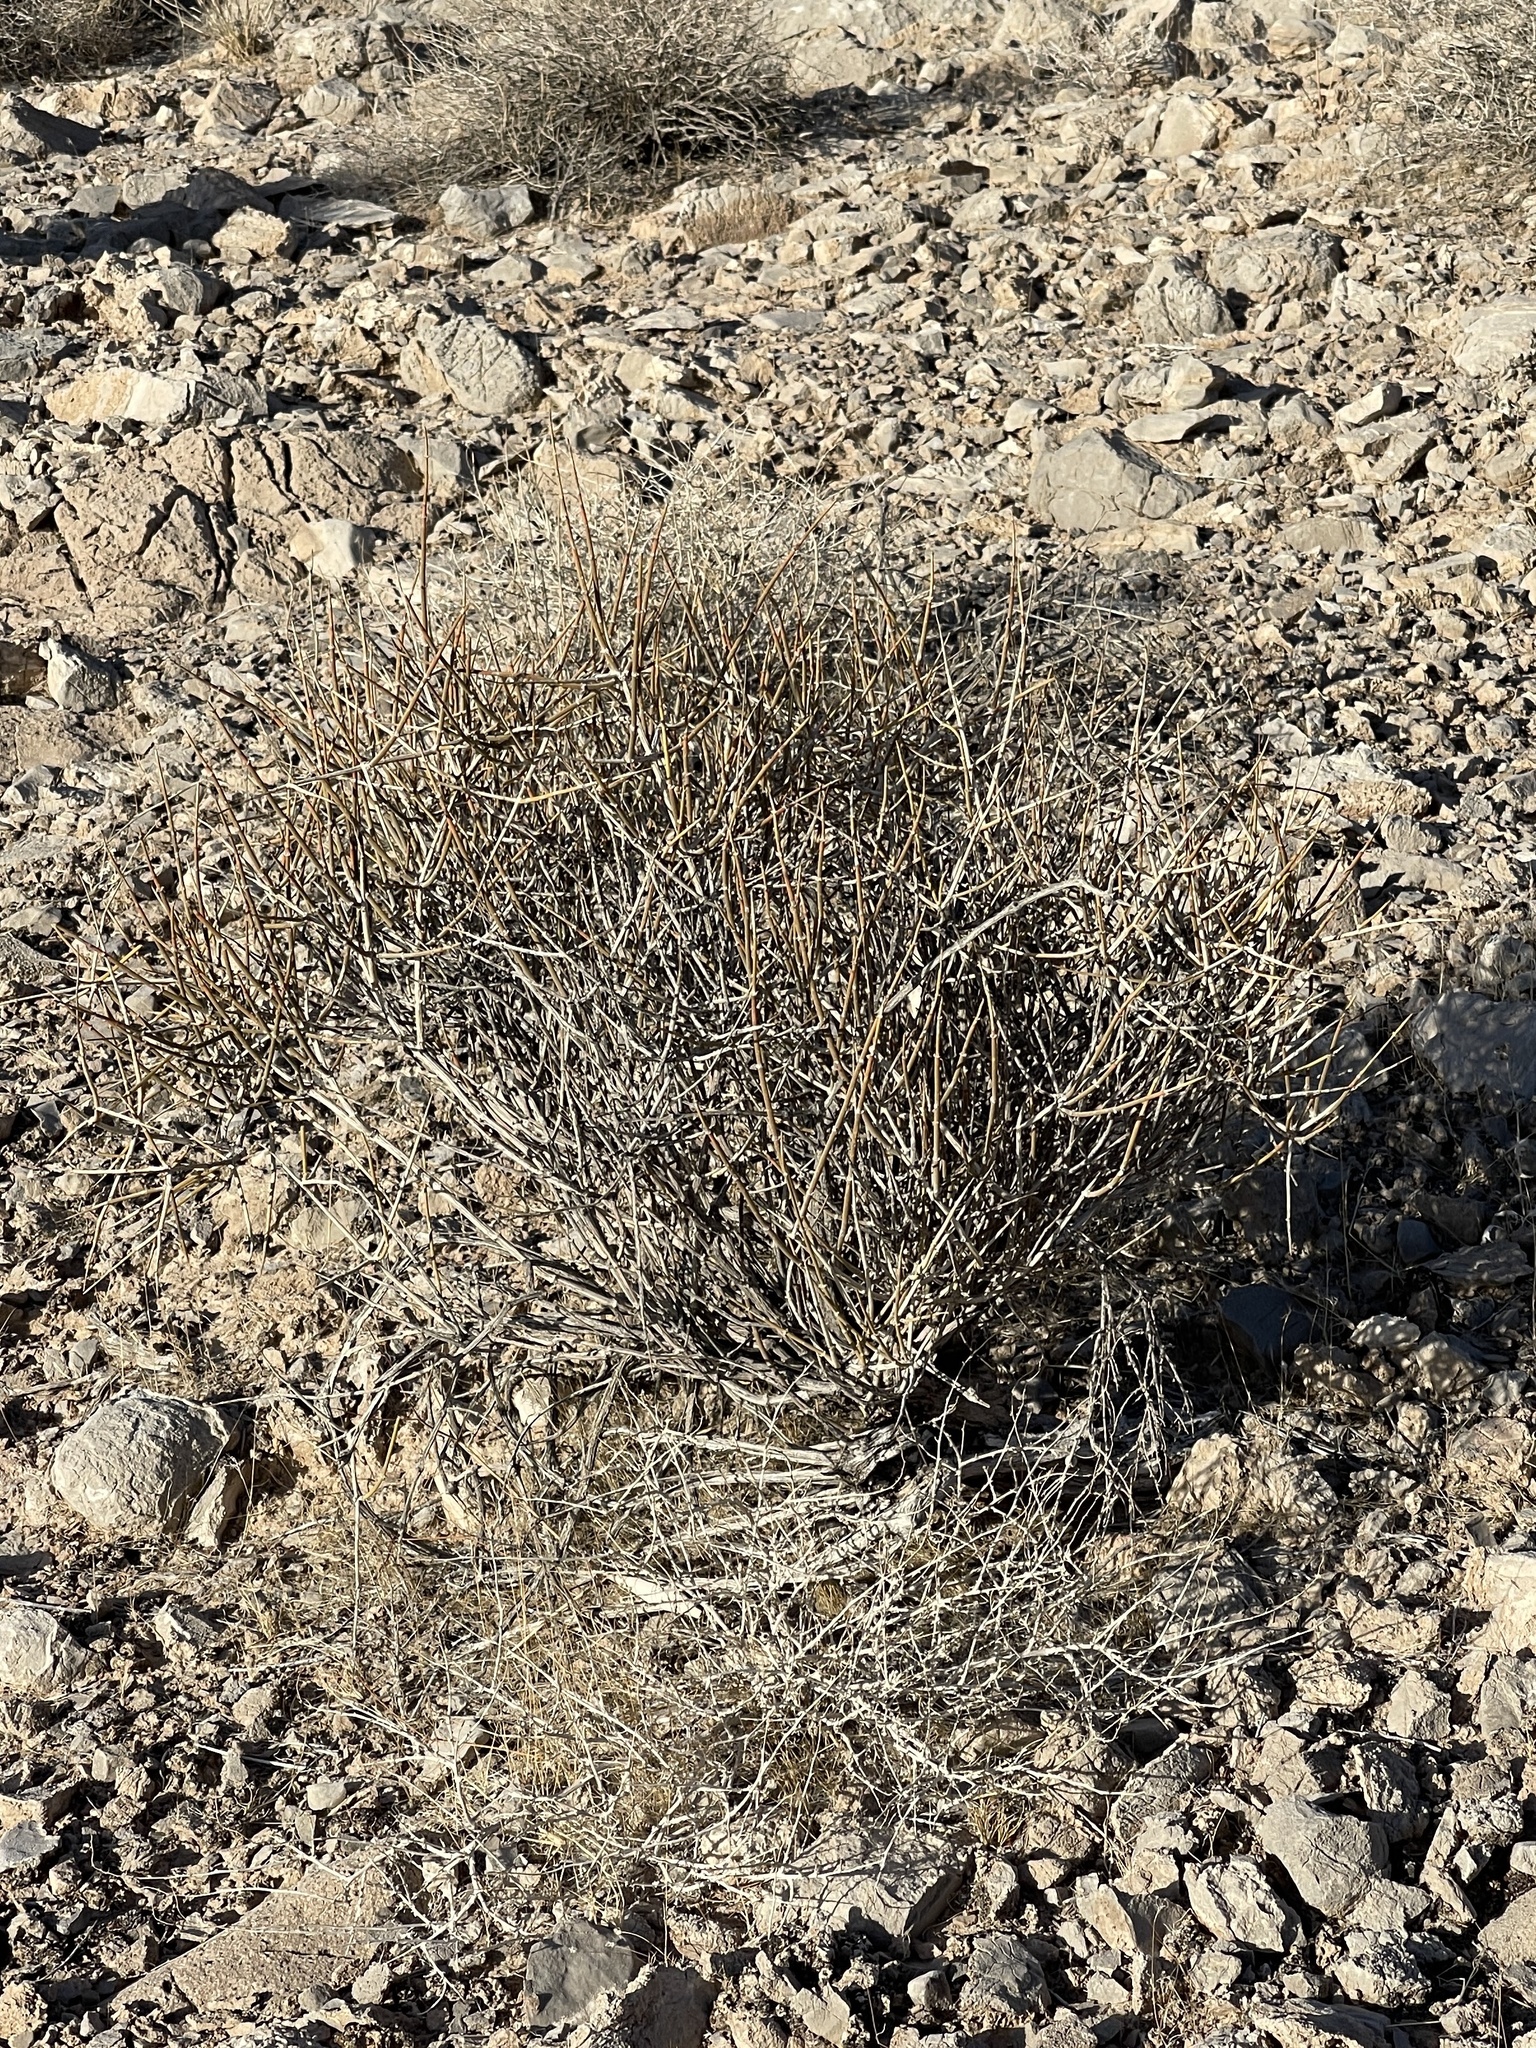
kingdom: Plantae
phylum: Tracheophyta
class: Gnetopsida
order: Ephedrales
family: Ephedraceae
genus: Ephedra
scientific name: Ephedra nevadensis
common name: Gray ephedra
